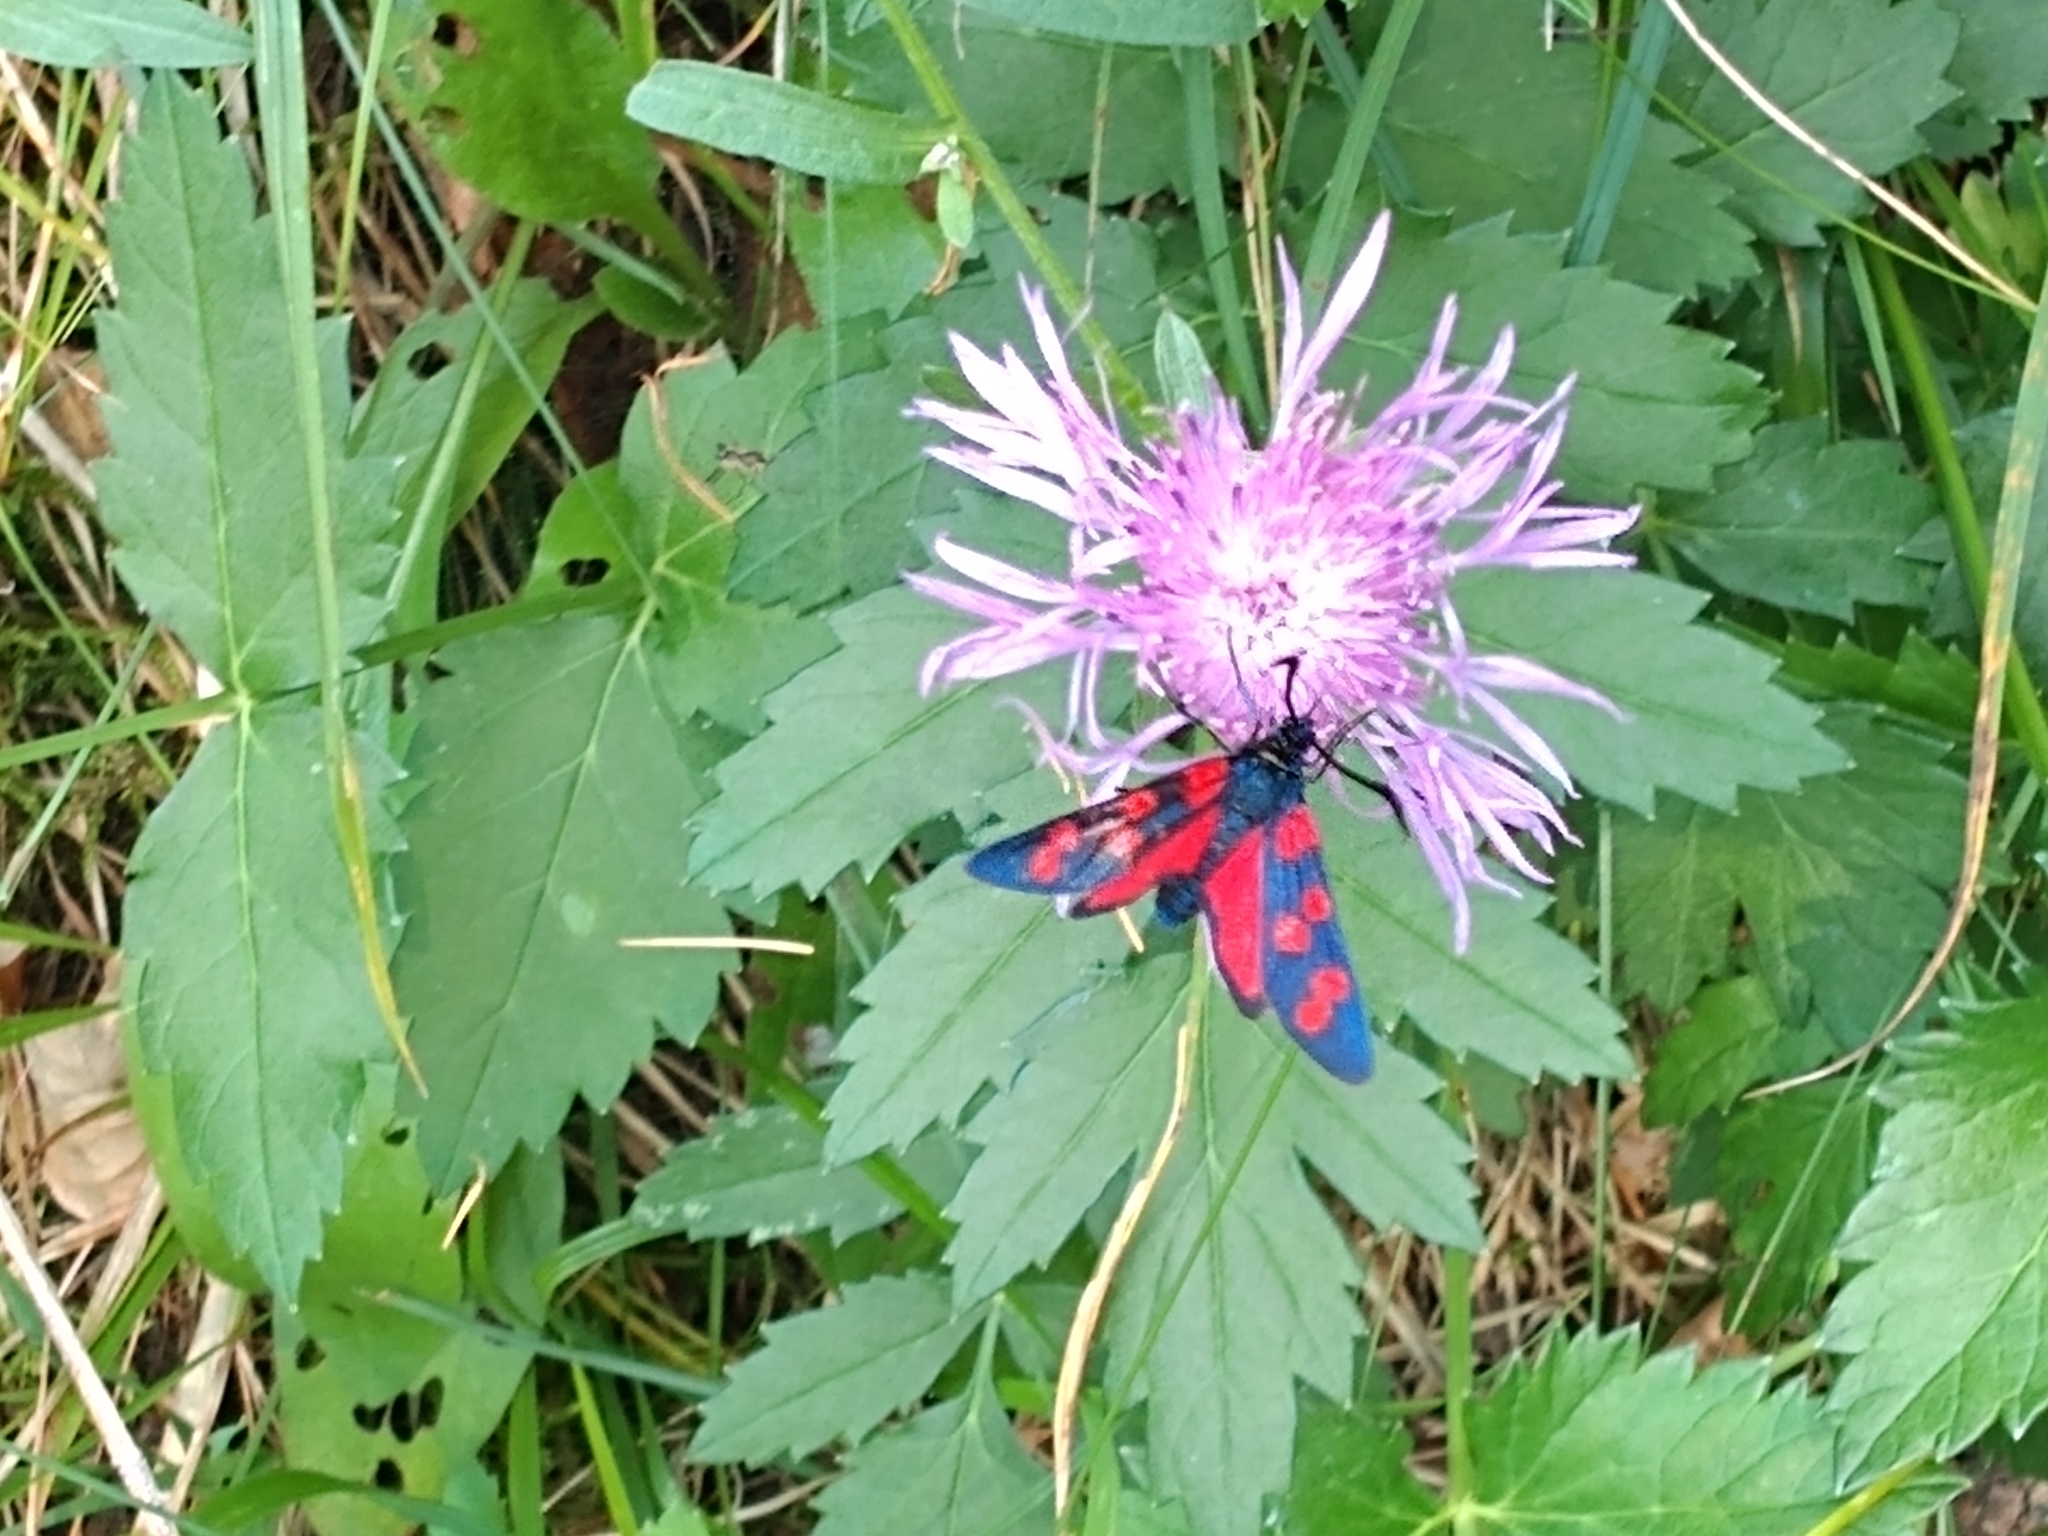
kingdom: Animalia
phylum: Arthropoda
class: Insecta
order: Lepidoptera
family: Zygaenidae
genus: Zygaena
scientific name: Zygaena filipendulae
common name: Six-spot burnet
